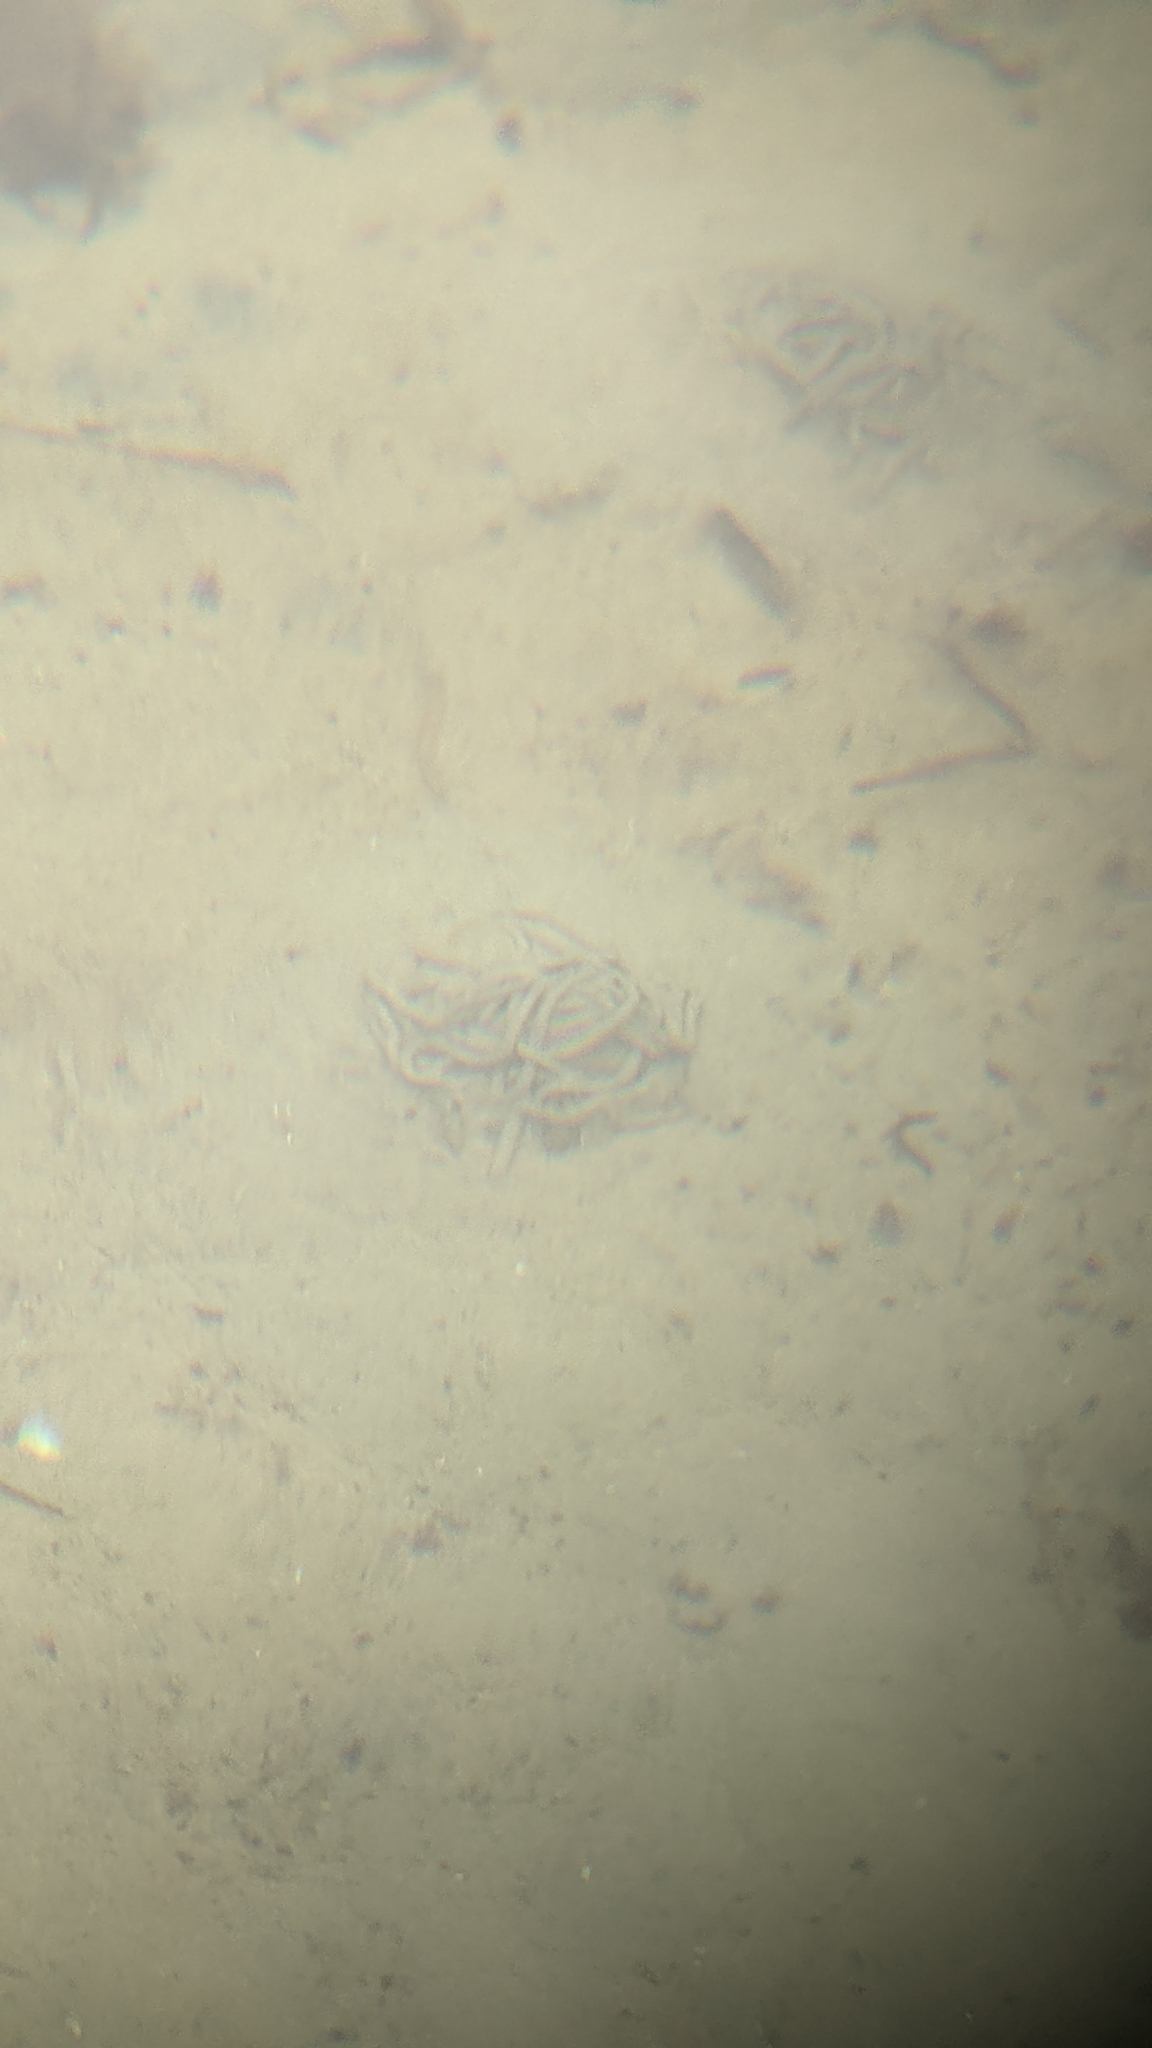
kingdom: Animalia
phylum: Annelida
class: Polychaeta
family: Arenicolidae
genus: Arenicola
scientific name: Arenicola marina
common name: Blow lugworm
